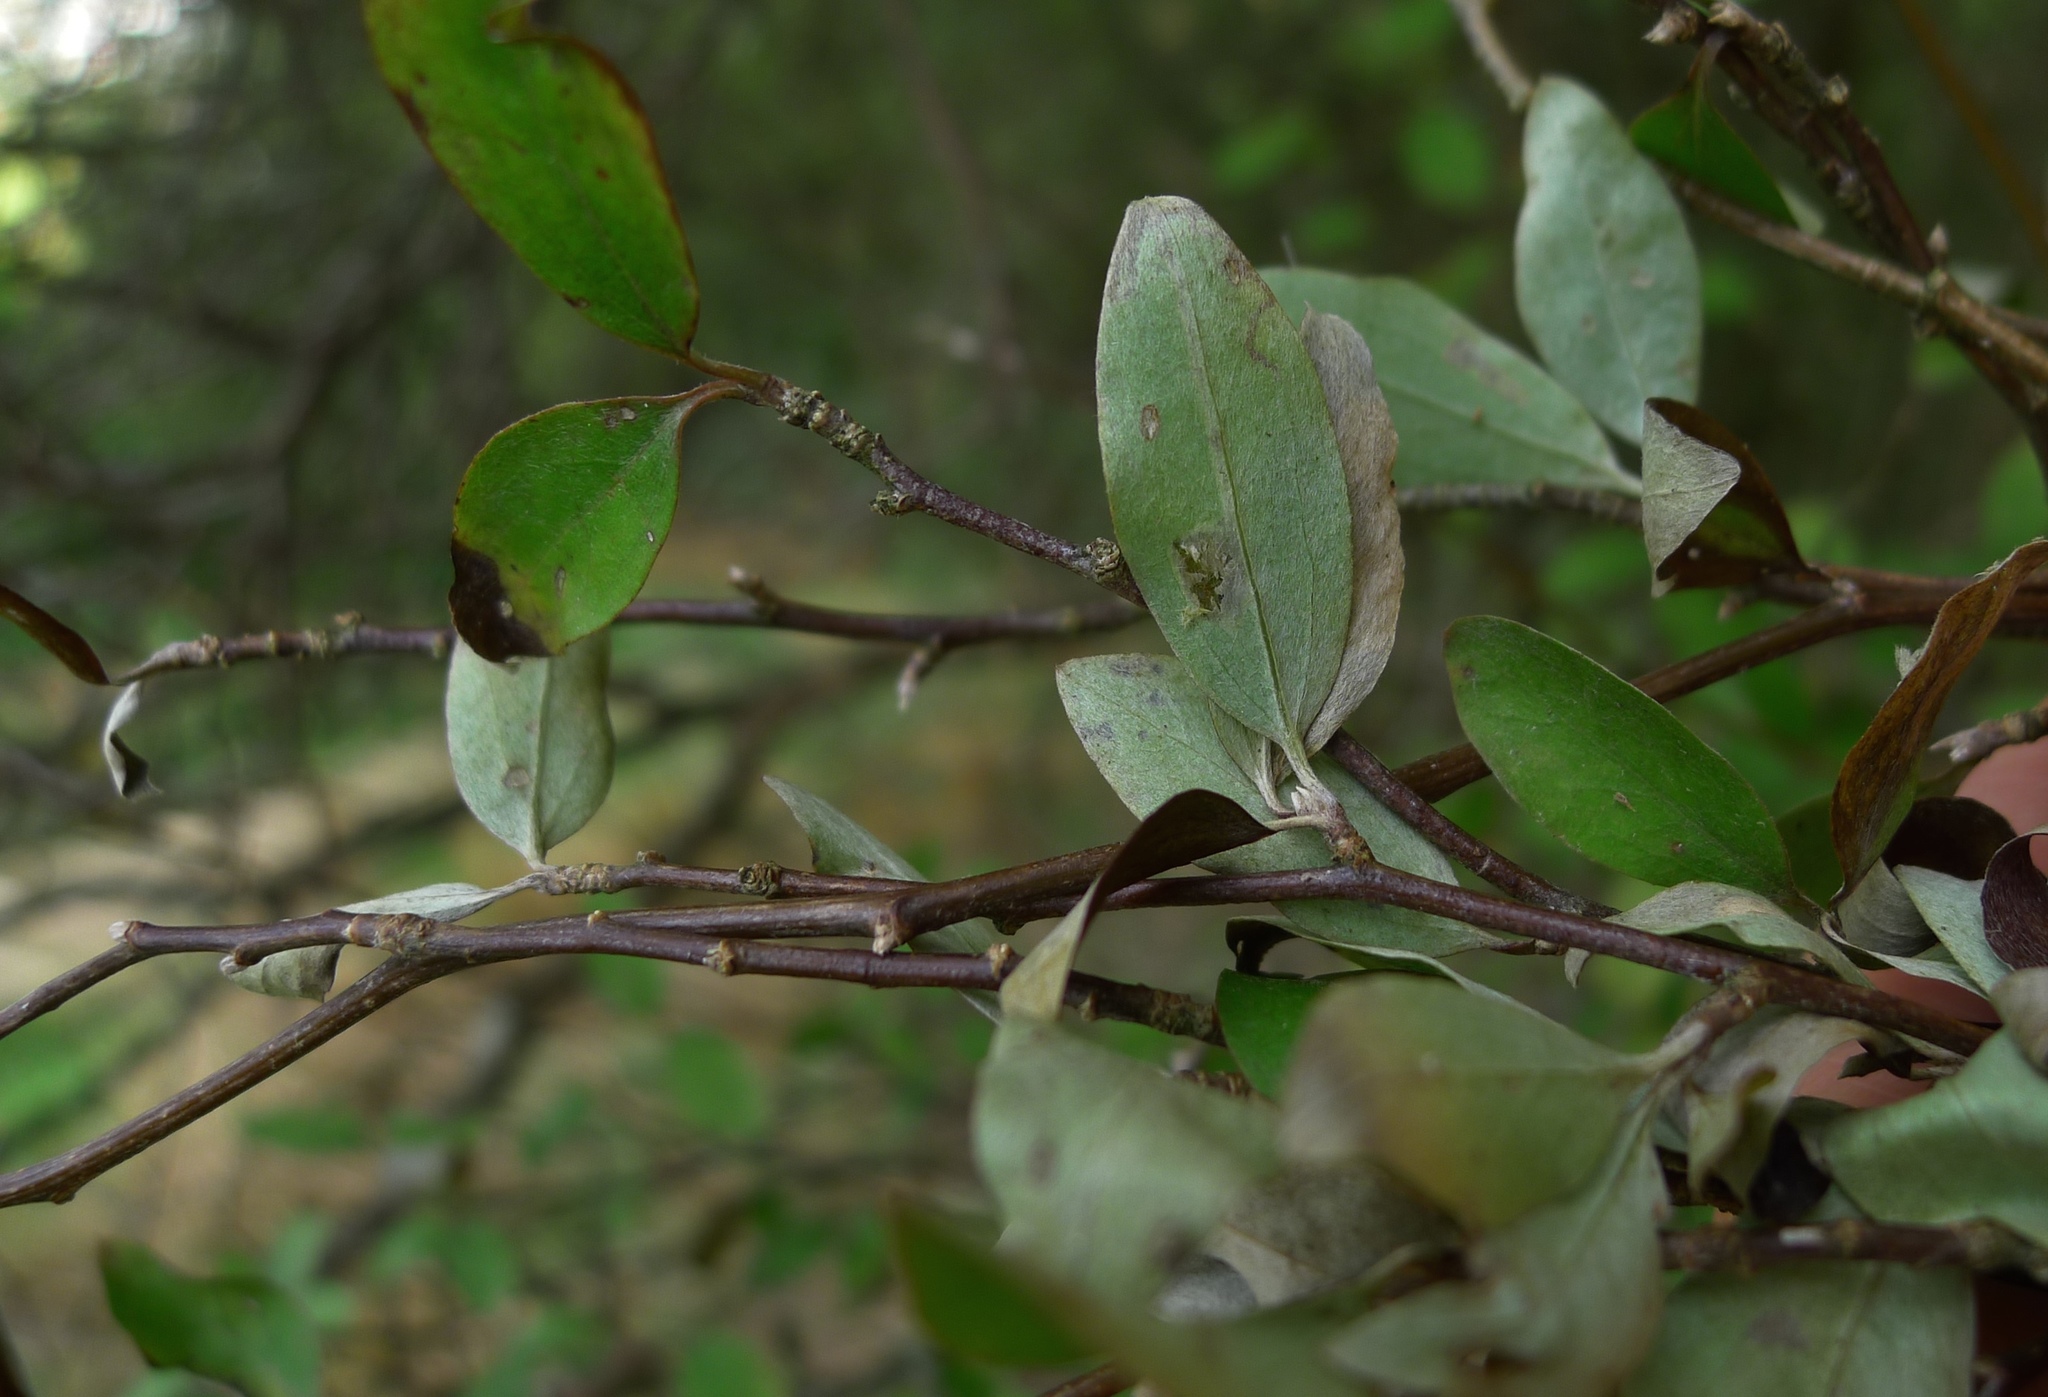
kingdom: Plantae
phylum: Tracheophyta
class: Magnoliopsida
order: Asterales
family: Asteraceae
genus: Olearia
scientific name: Olearia fragrantissima
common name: Fragrant tree daisy
